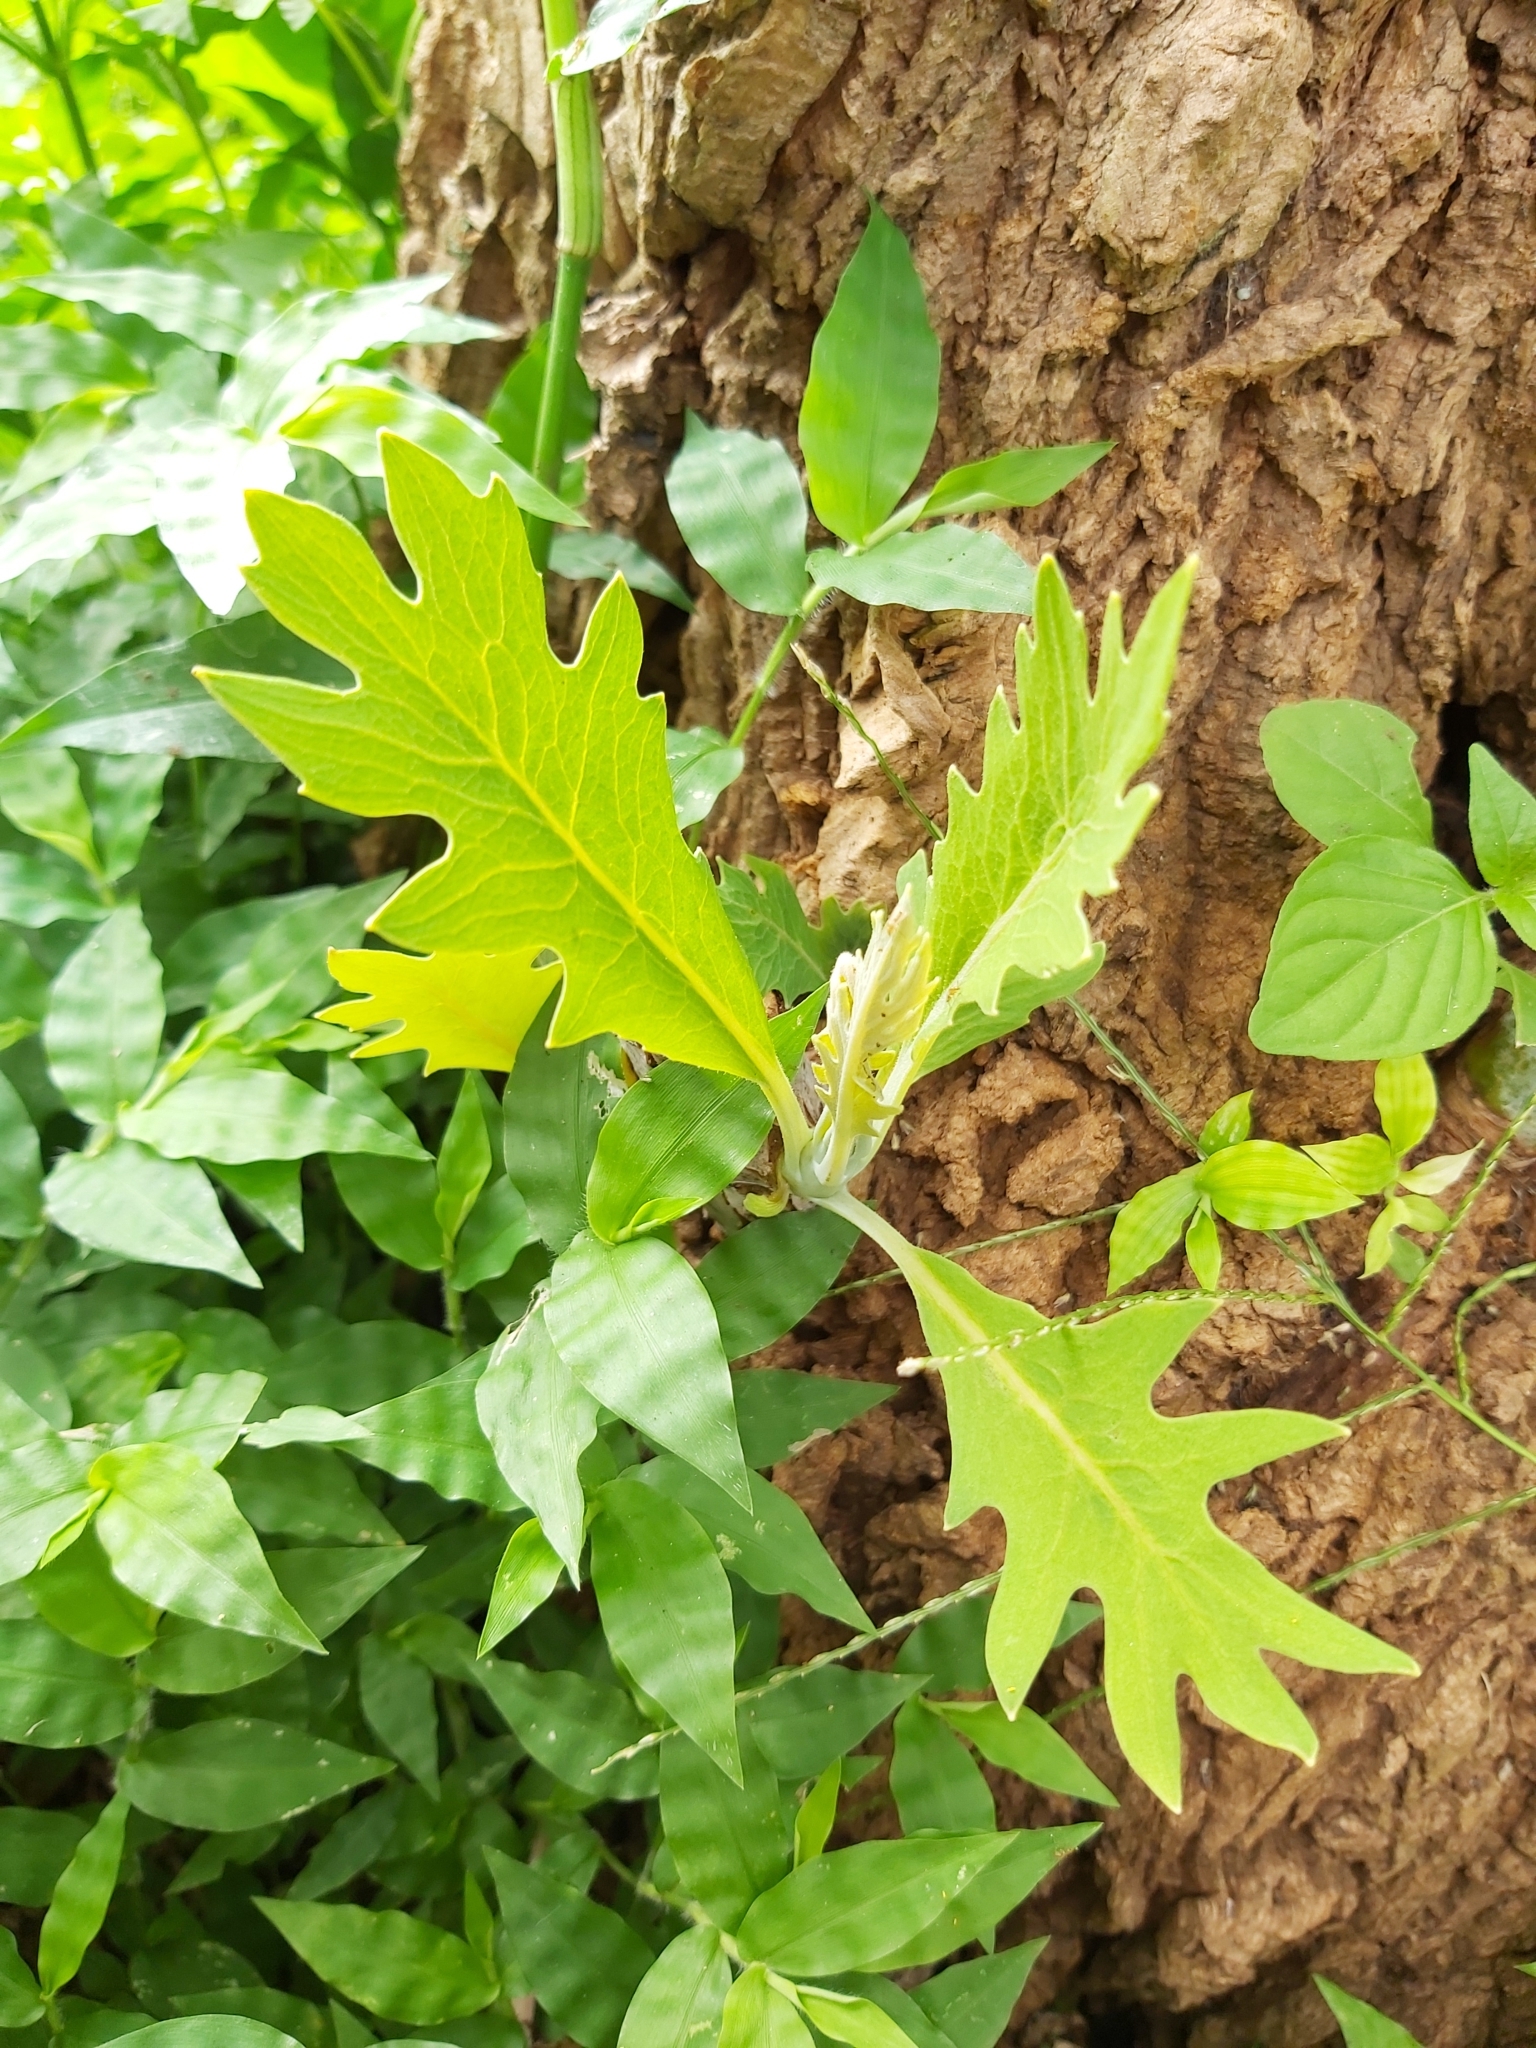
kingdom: Plantae
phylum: Tracheophyta
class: Magnoliopsida
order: Ranunculales
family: Papaveraceae
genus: Bocconia
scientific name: Bocconia arborea
